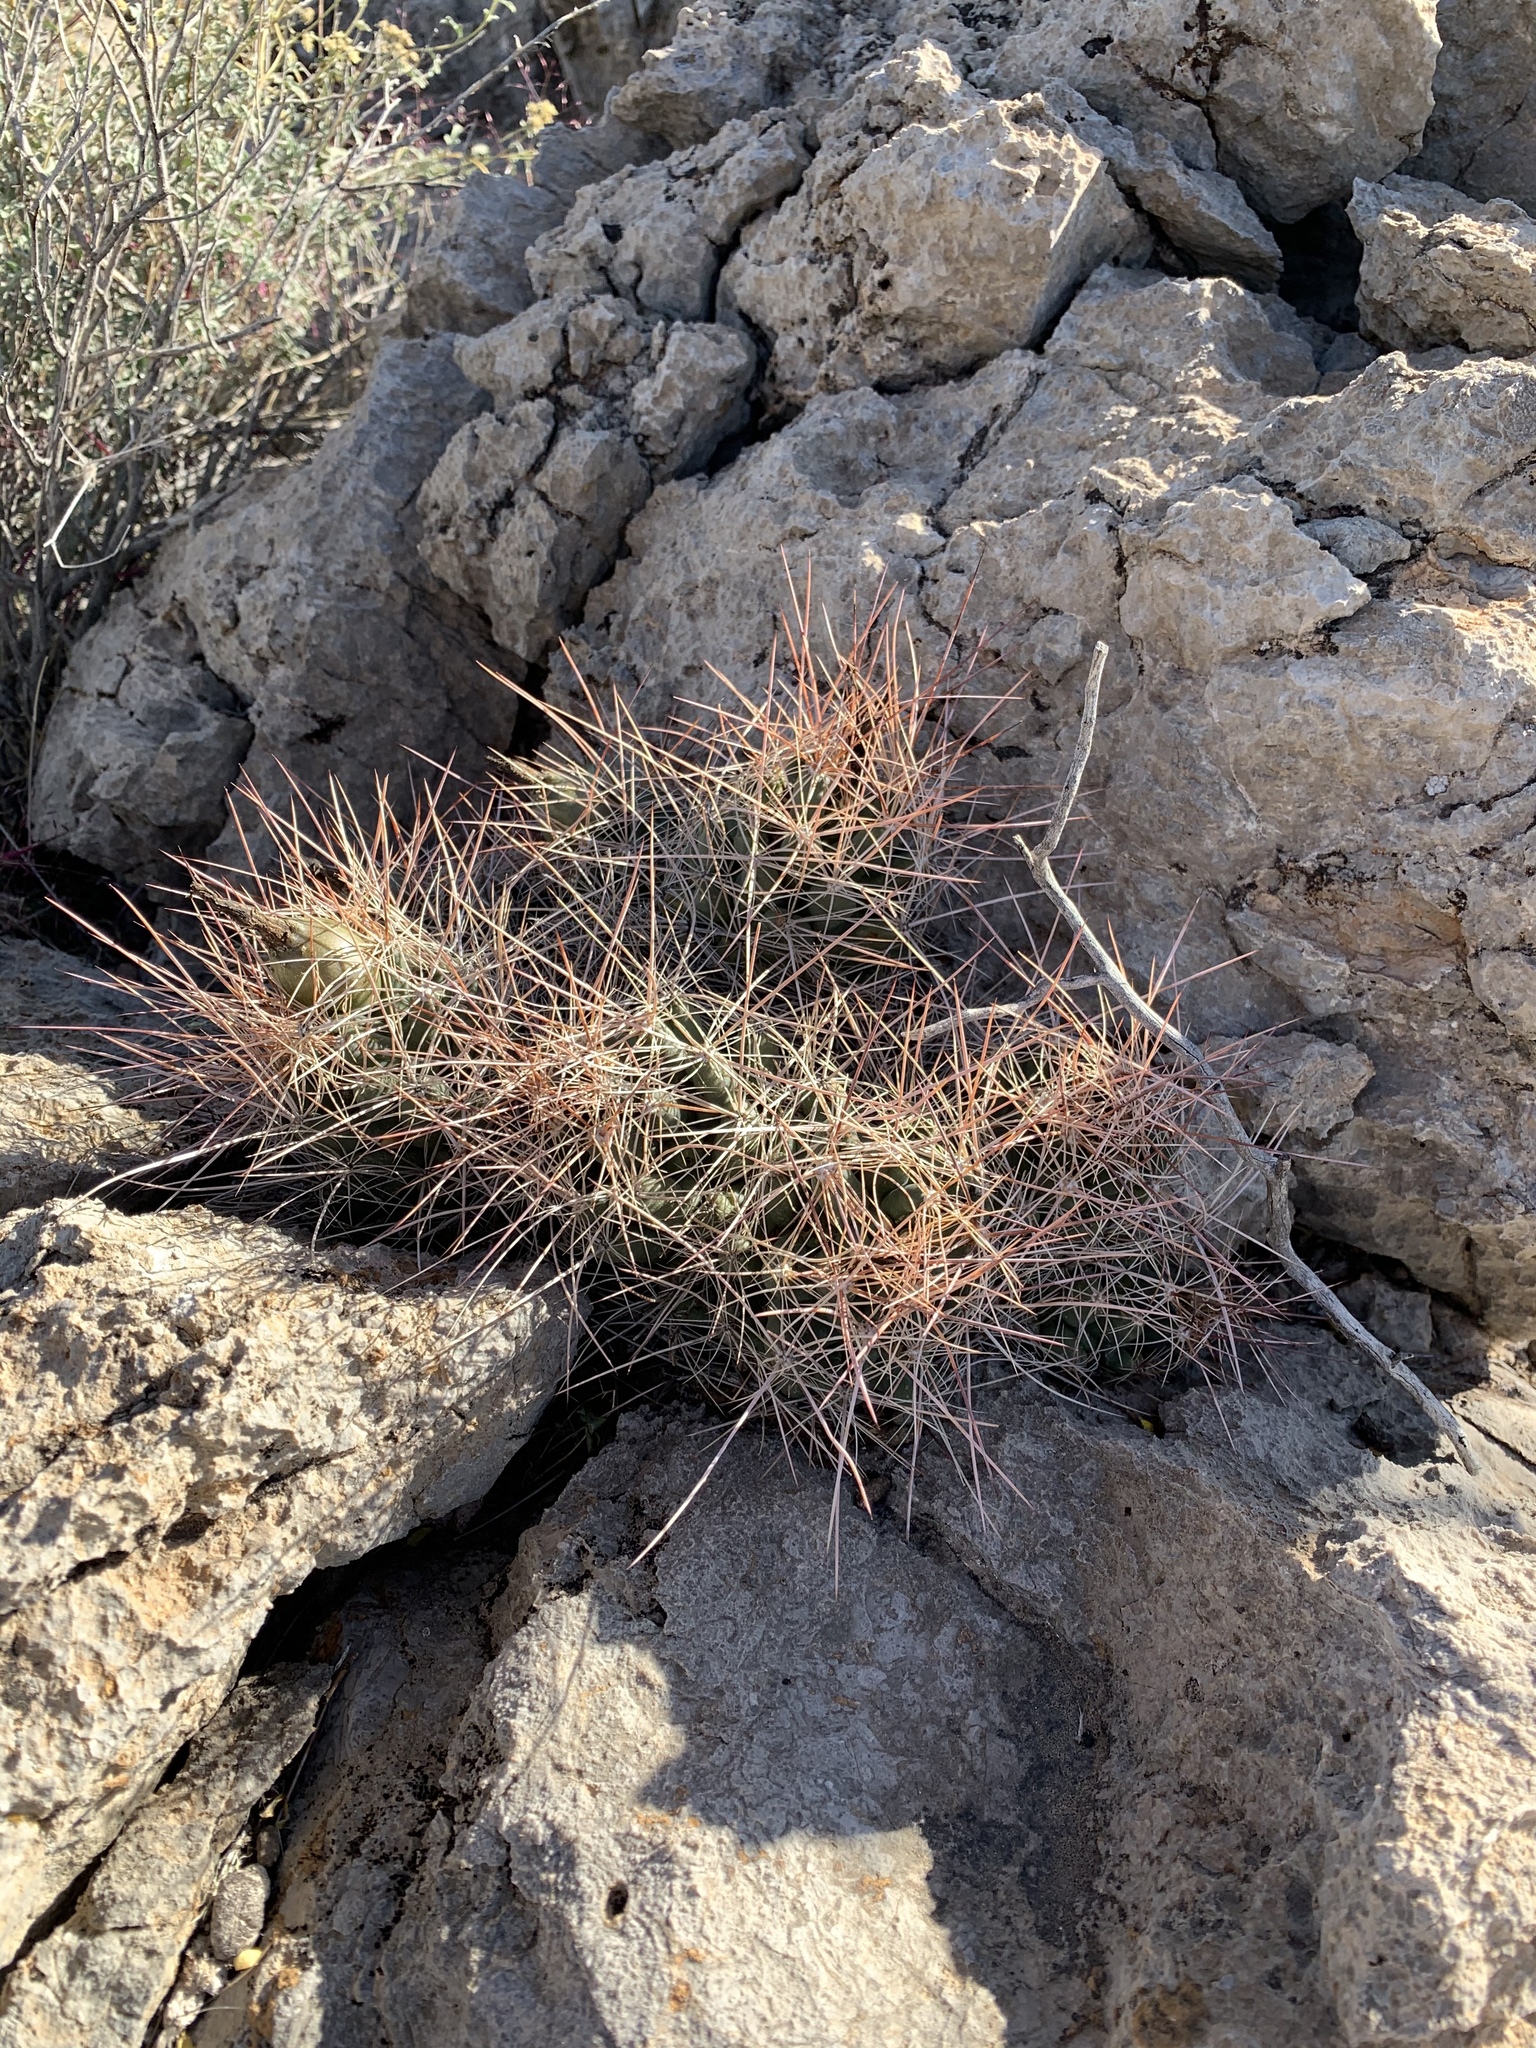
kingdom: Plantae
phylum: Tracheophyta
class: Magnoliopsida
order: Caryophyllales
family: Cactaceae
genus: Coryphantha
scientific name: Coryphantha macromeris
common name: Nipple beehive cactus
